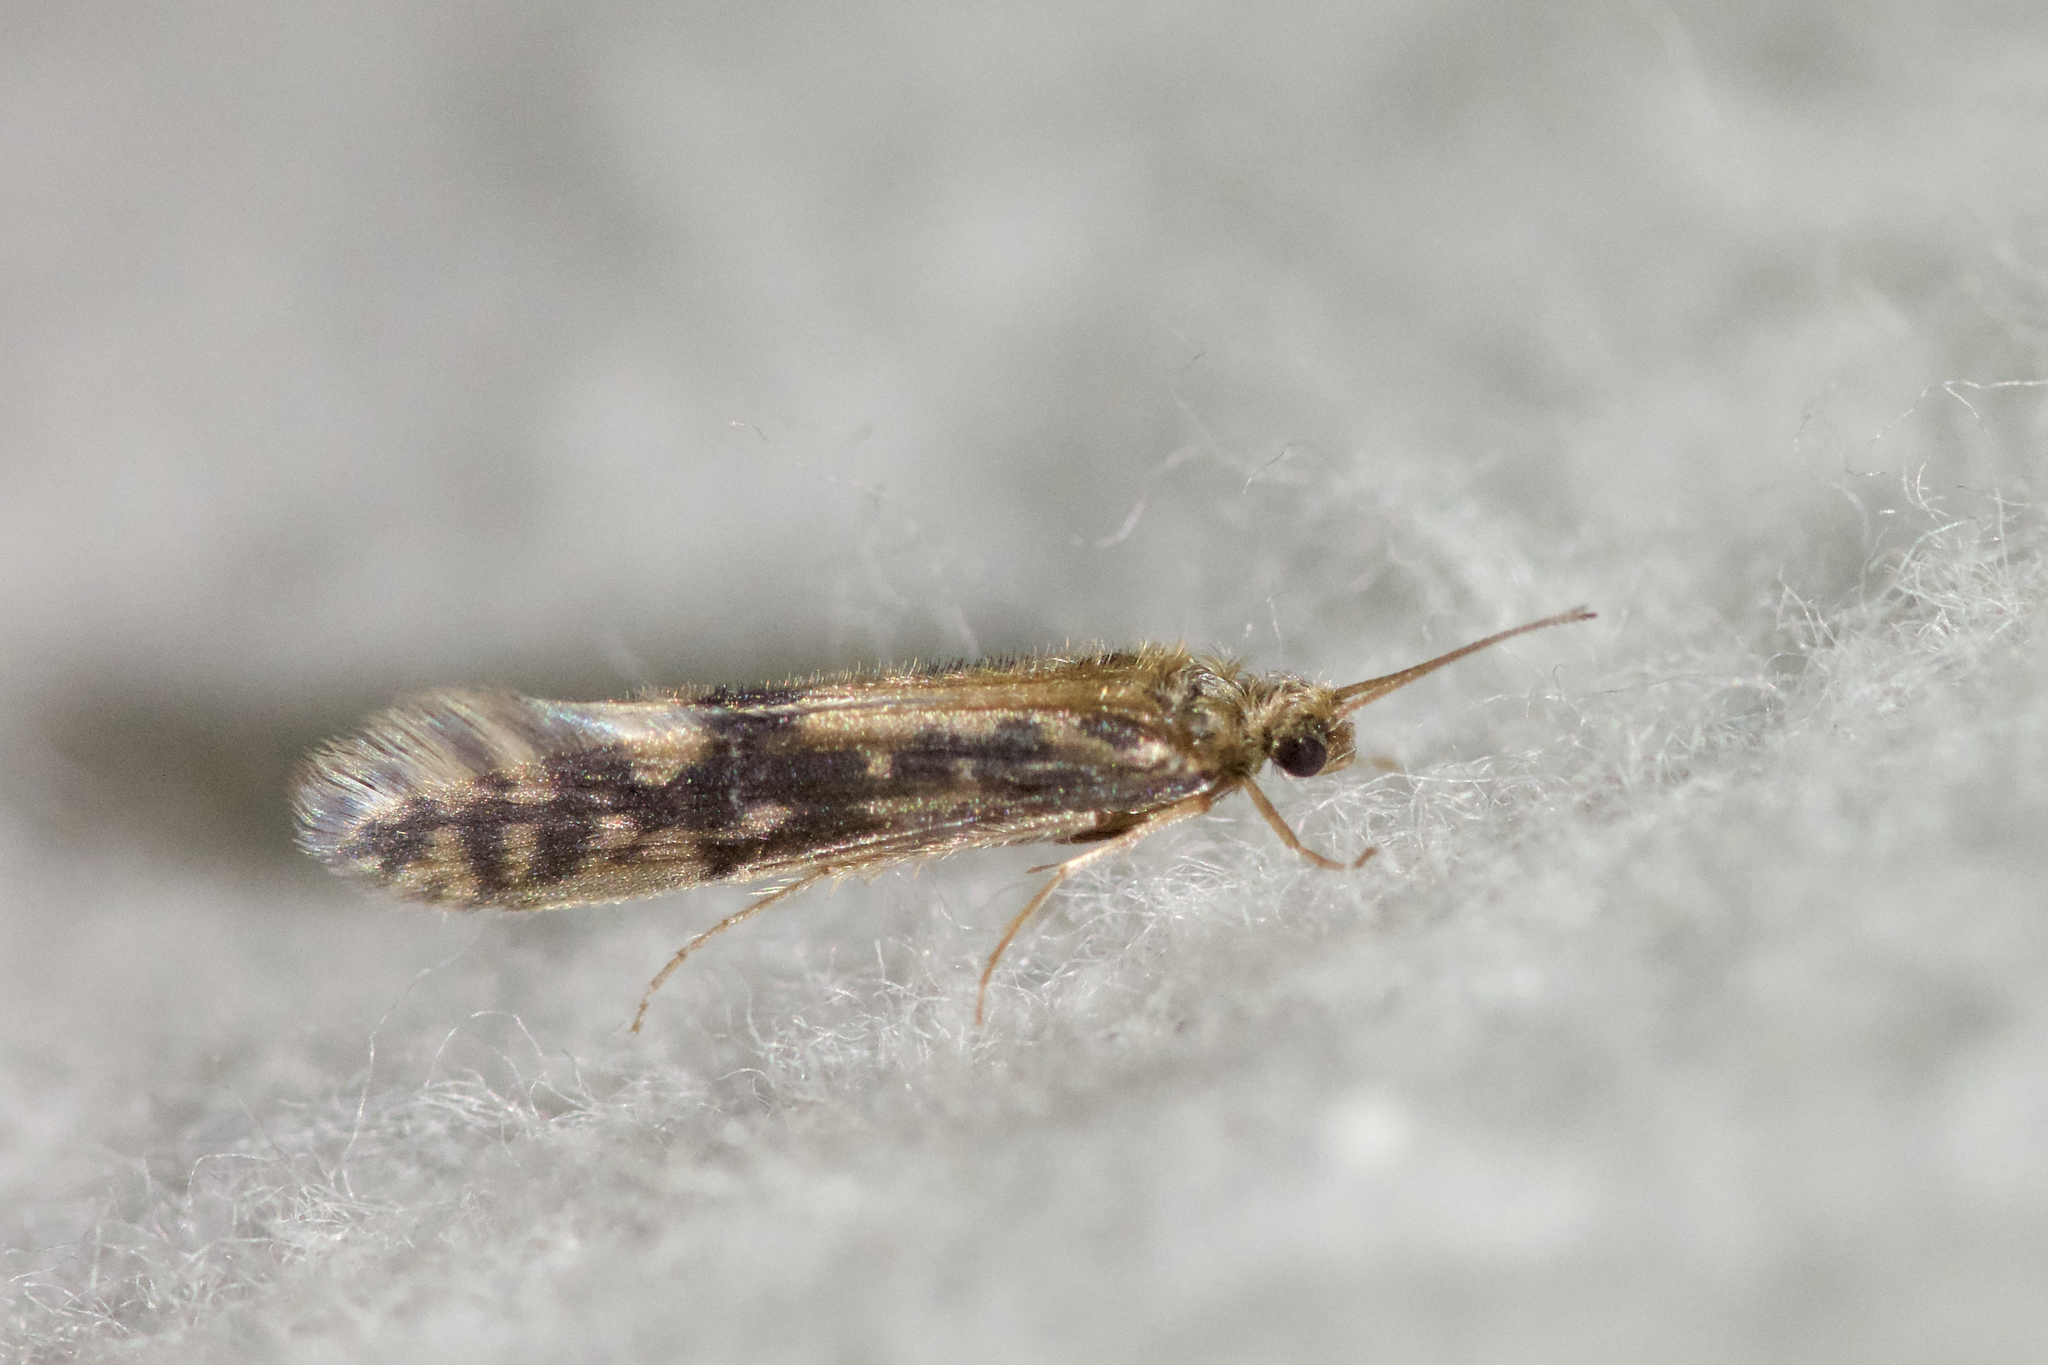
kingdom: Animalia
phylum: Arthropoda
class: Insecta
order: Trichoptera
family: Hydroptilidae
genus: Agraylea
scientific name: Agraylea multipunctata
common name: Salt and pepper microcaddisfly
